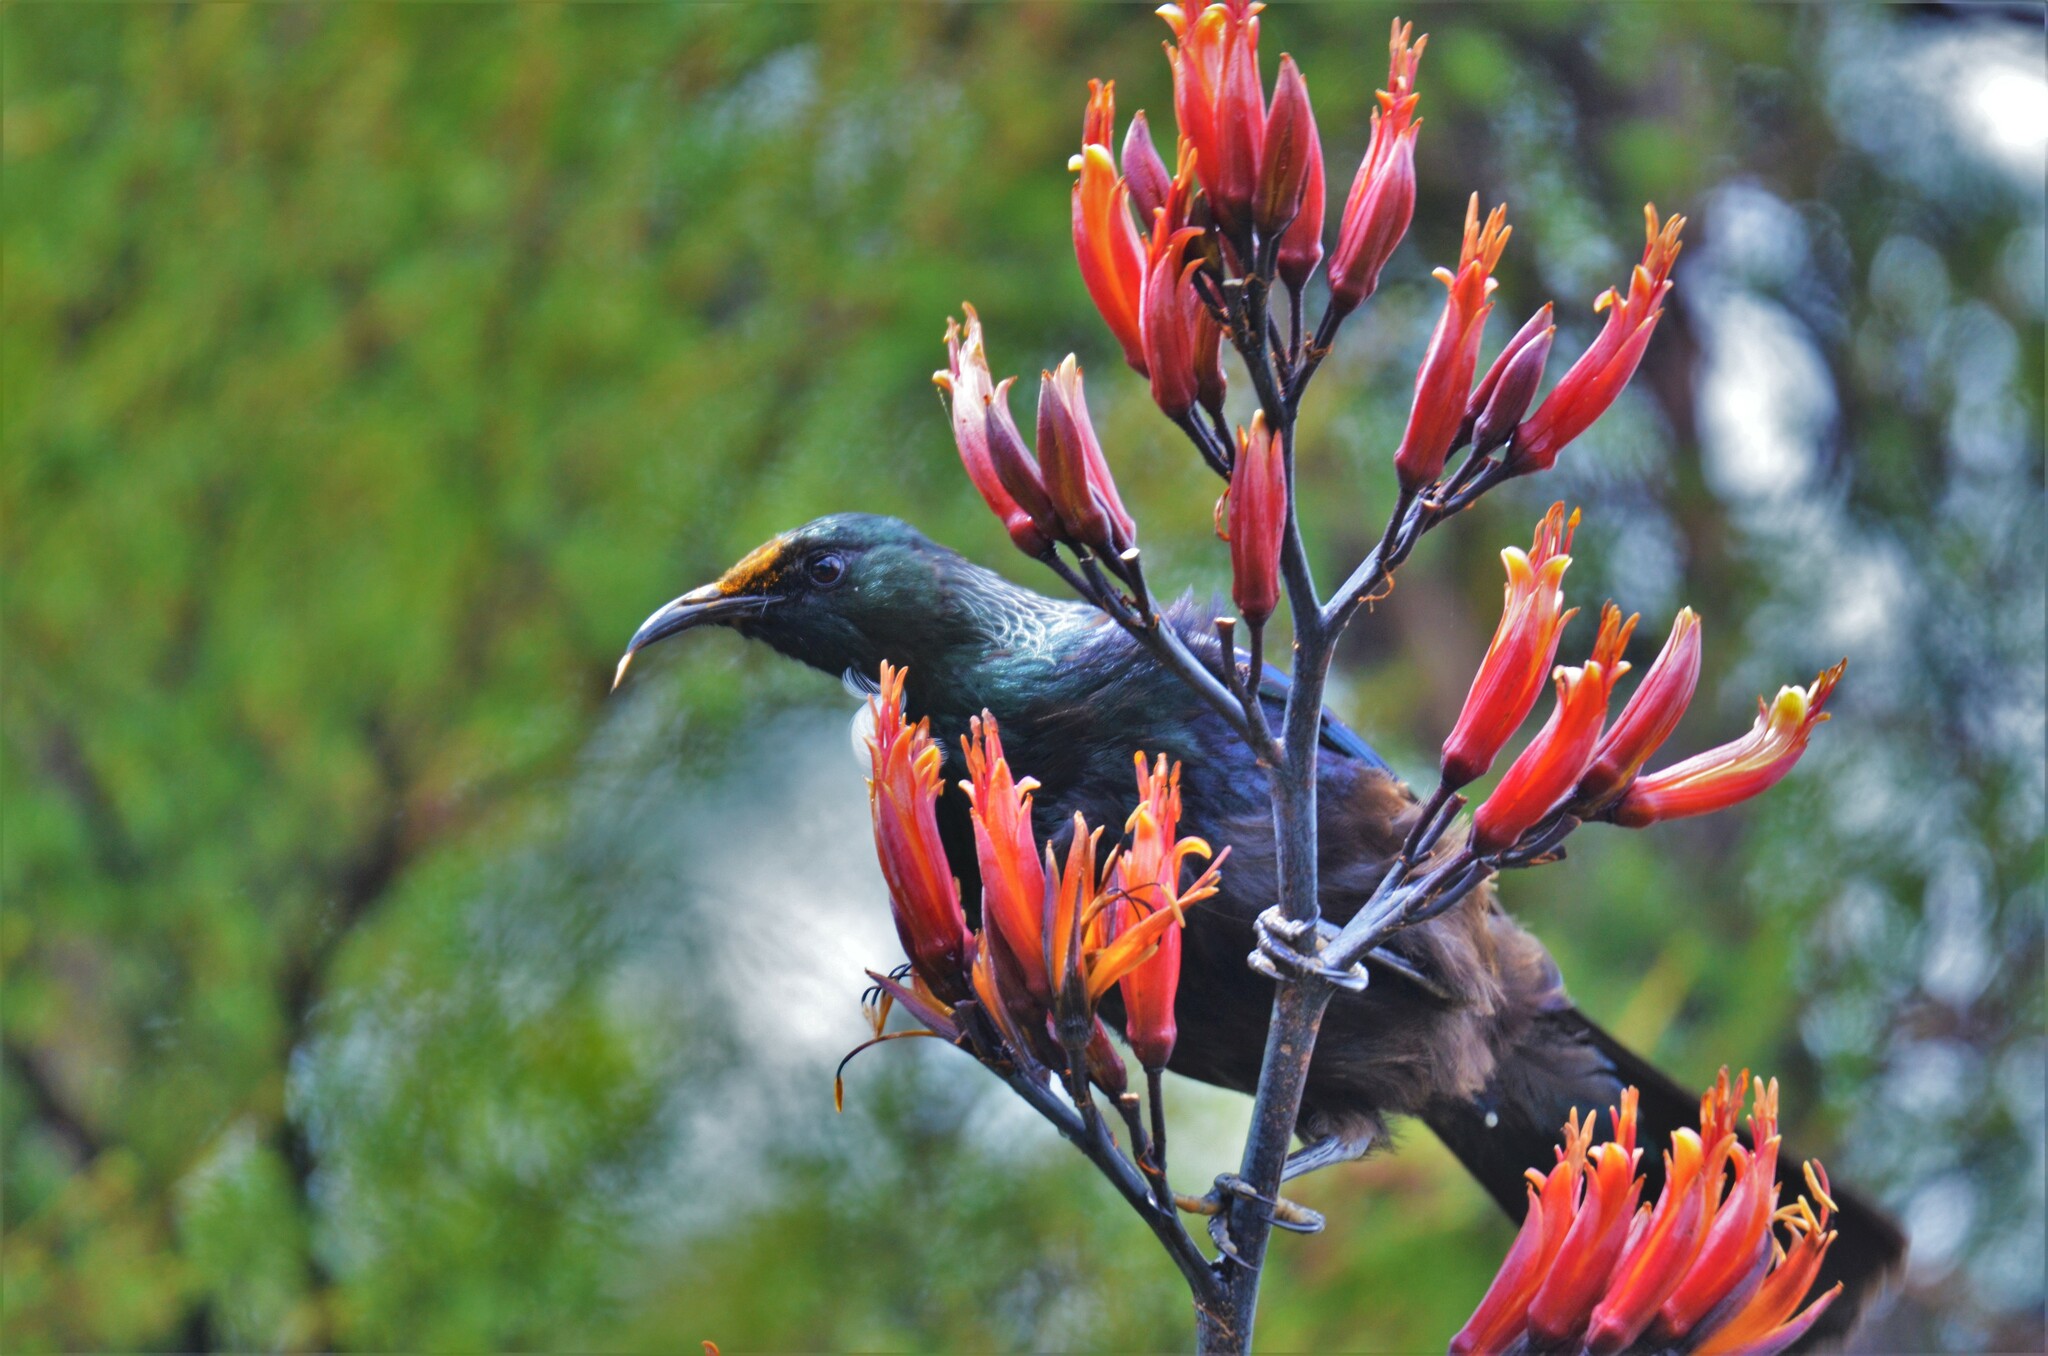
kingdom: Animalia
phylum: Chordata
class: Aves
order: Passeriformes
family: Meliphagidae
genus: Prosthemadera
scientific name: Prosthemadera novaeseelandiae
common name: Tui
